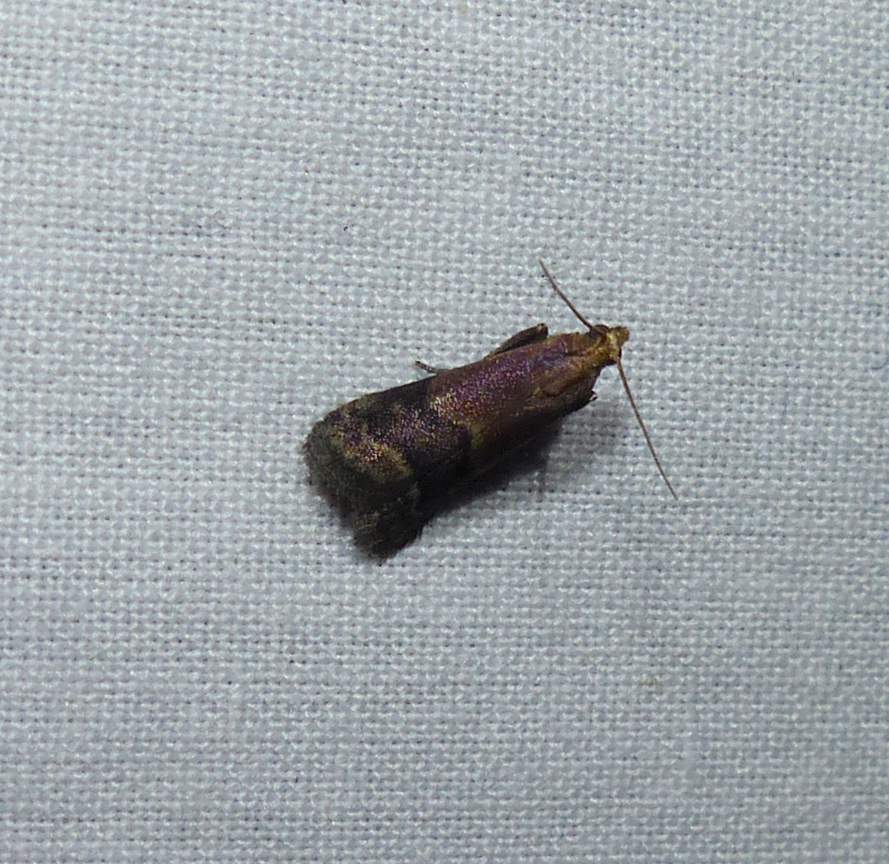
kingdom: Animalia
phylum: Arthropoda
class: Insecta
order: Lepidoptera
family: Pyralidae
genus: Eulogia
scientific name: Eulogia ochrifrontella
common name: Broad-banded eulogia moth
